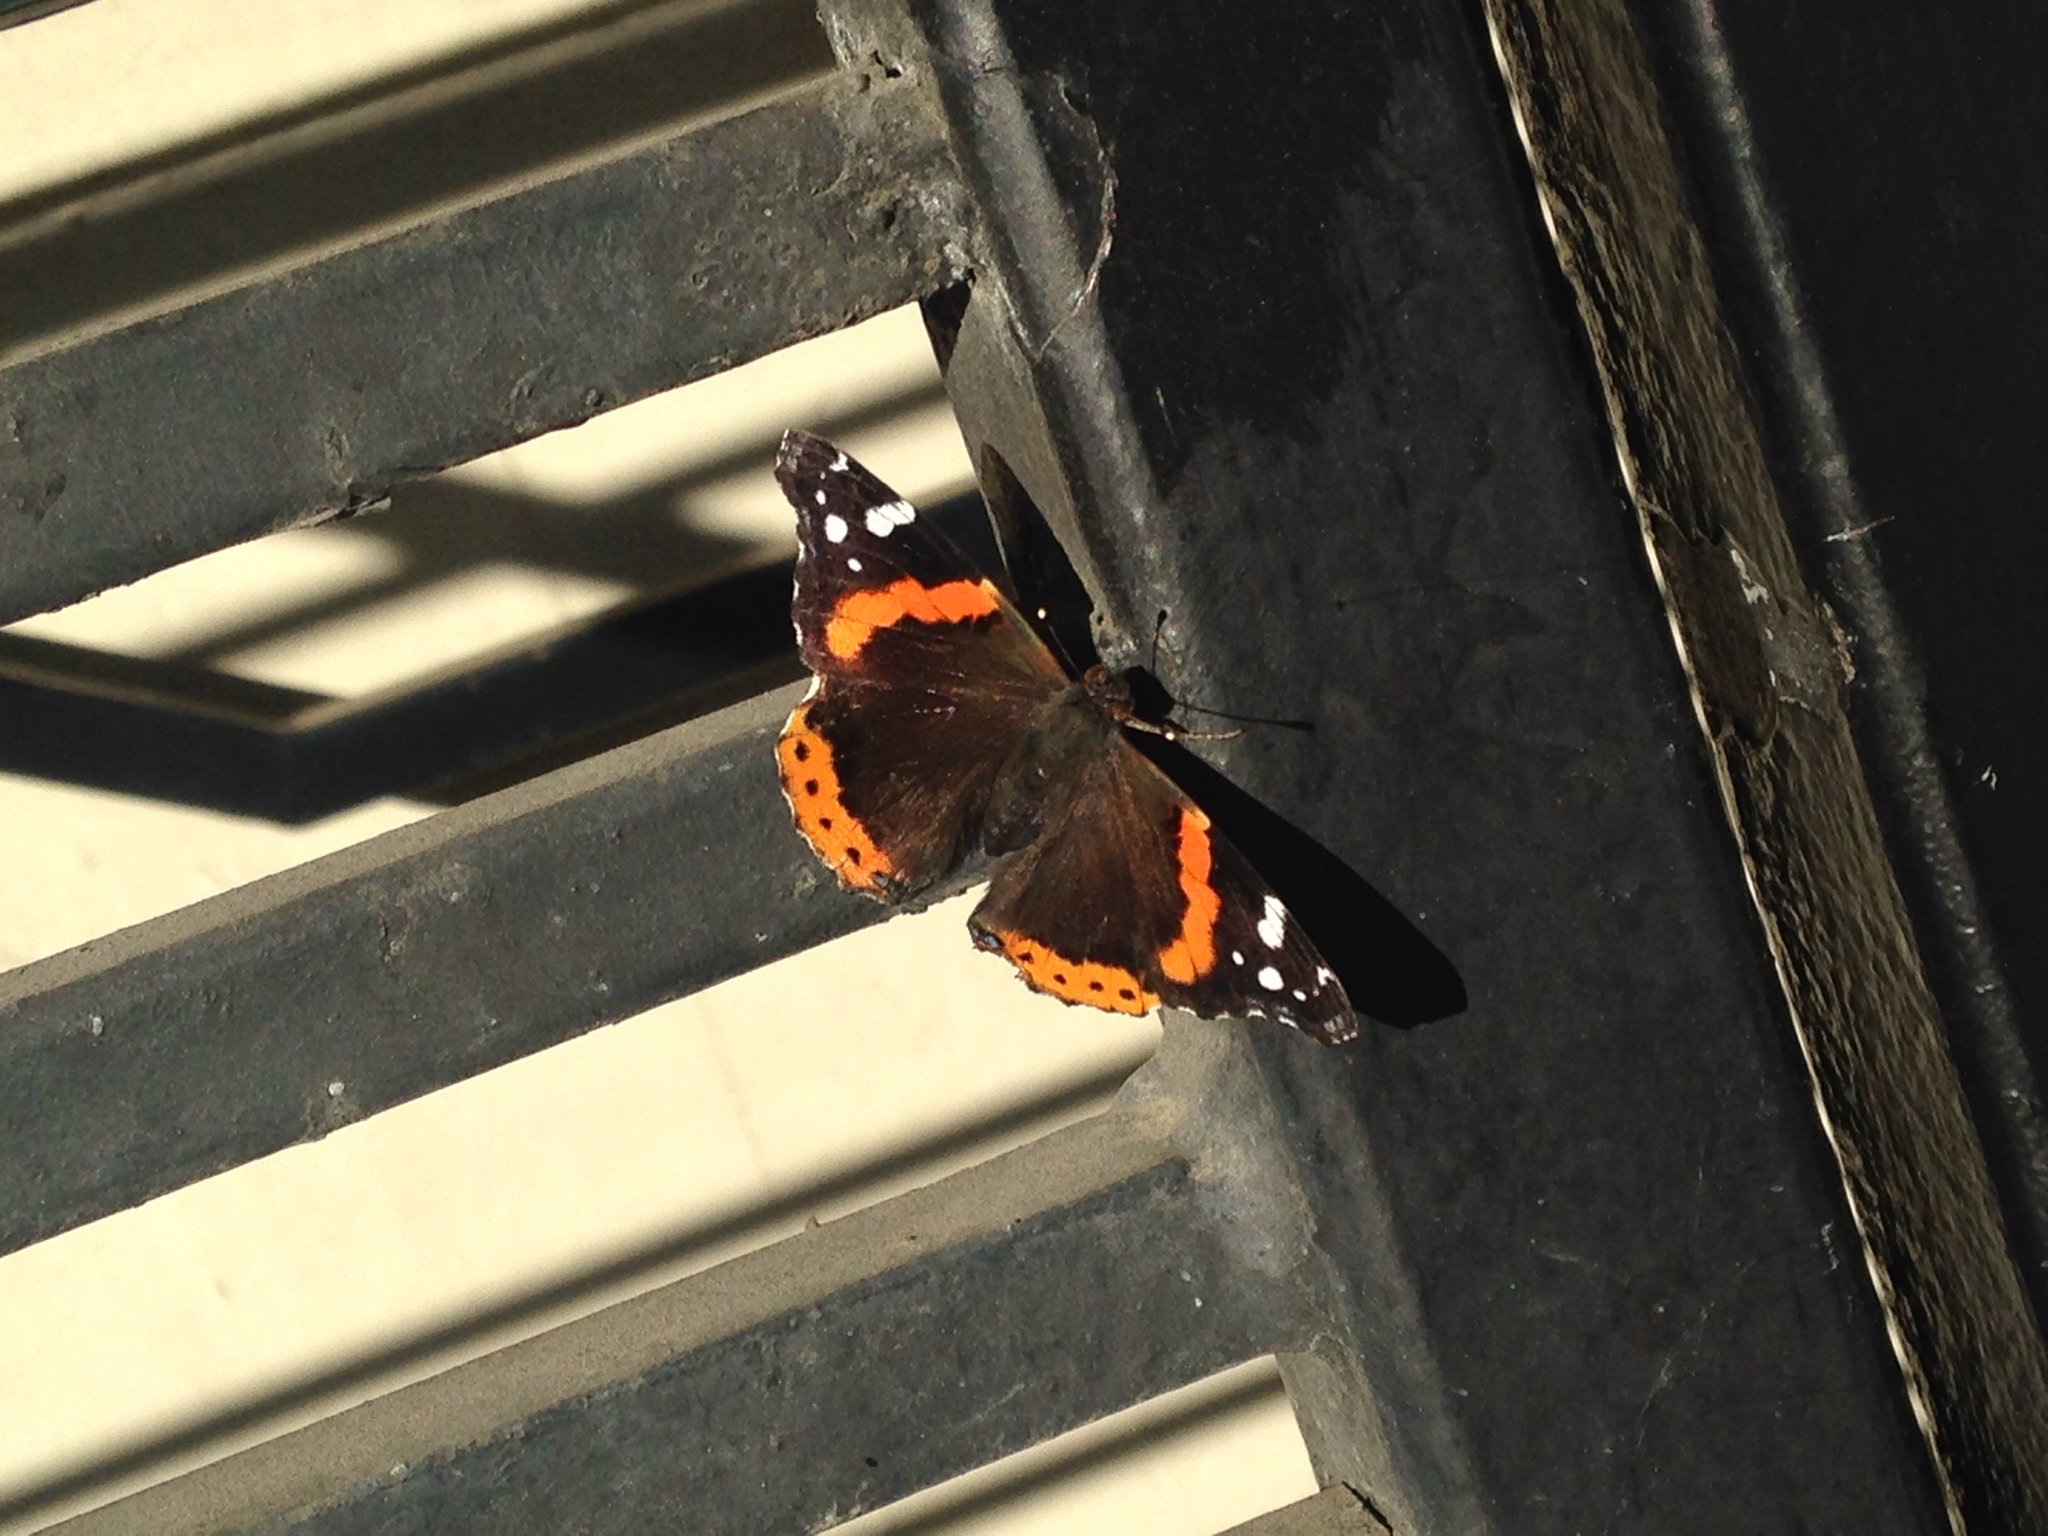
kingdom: Animalia
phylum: Arthropoda
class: Insecta
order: Lepidoptera
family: Nymphalidae
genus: Vanessa
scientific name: Vanessa atalanta
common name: Red admiral
